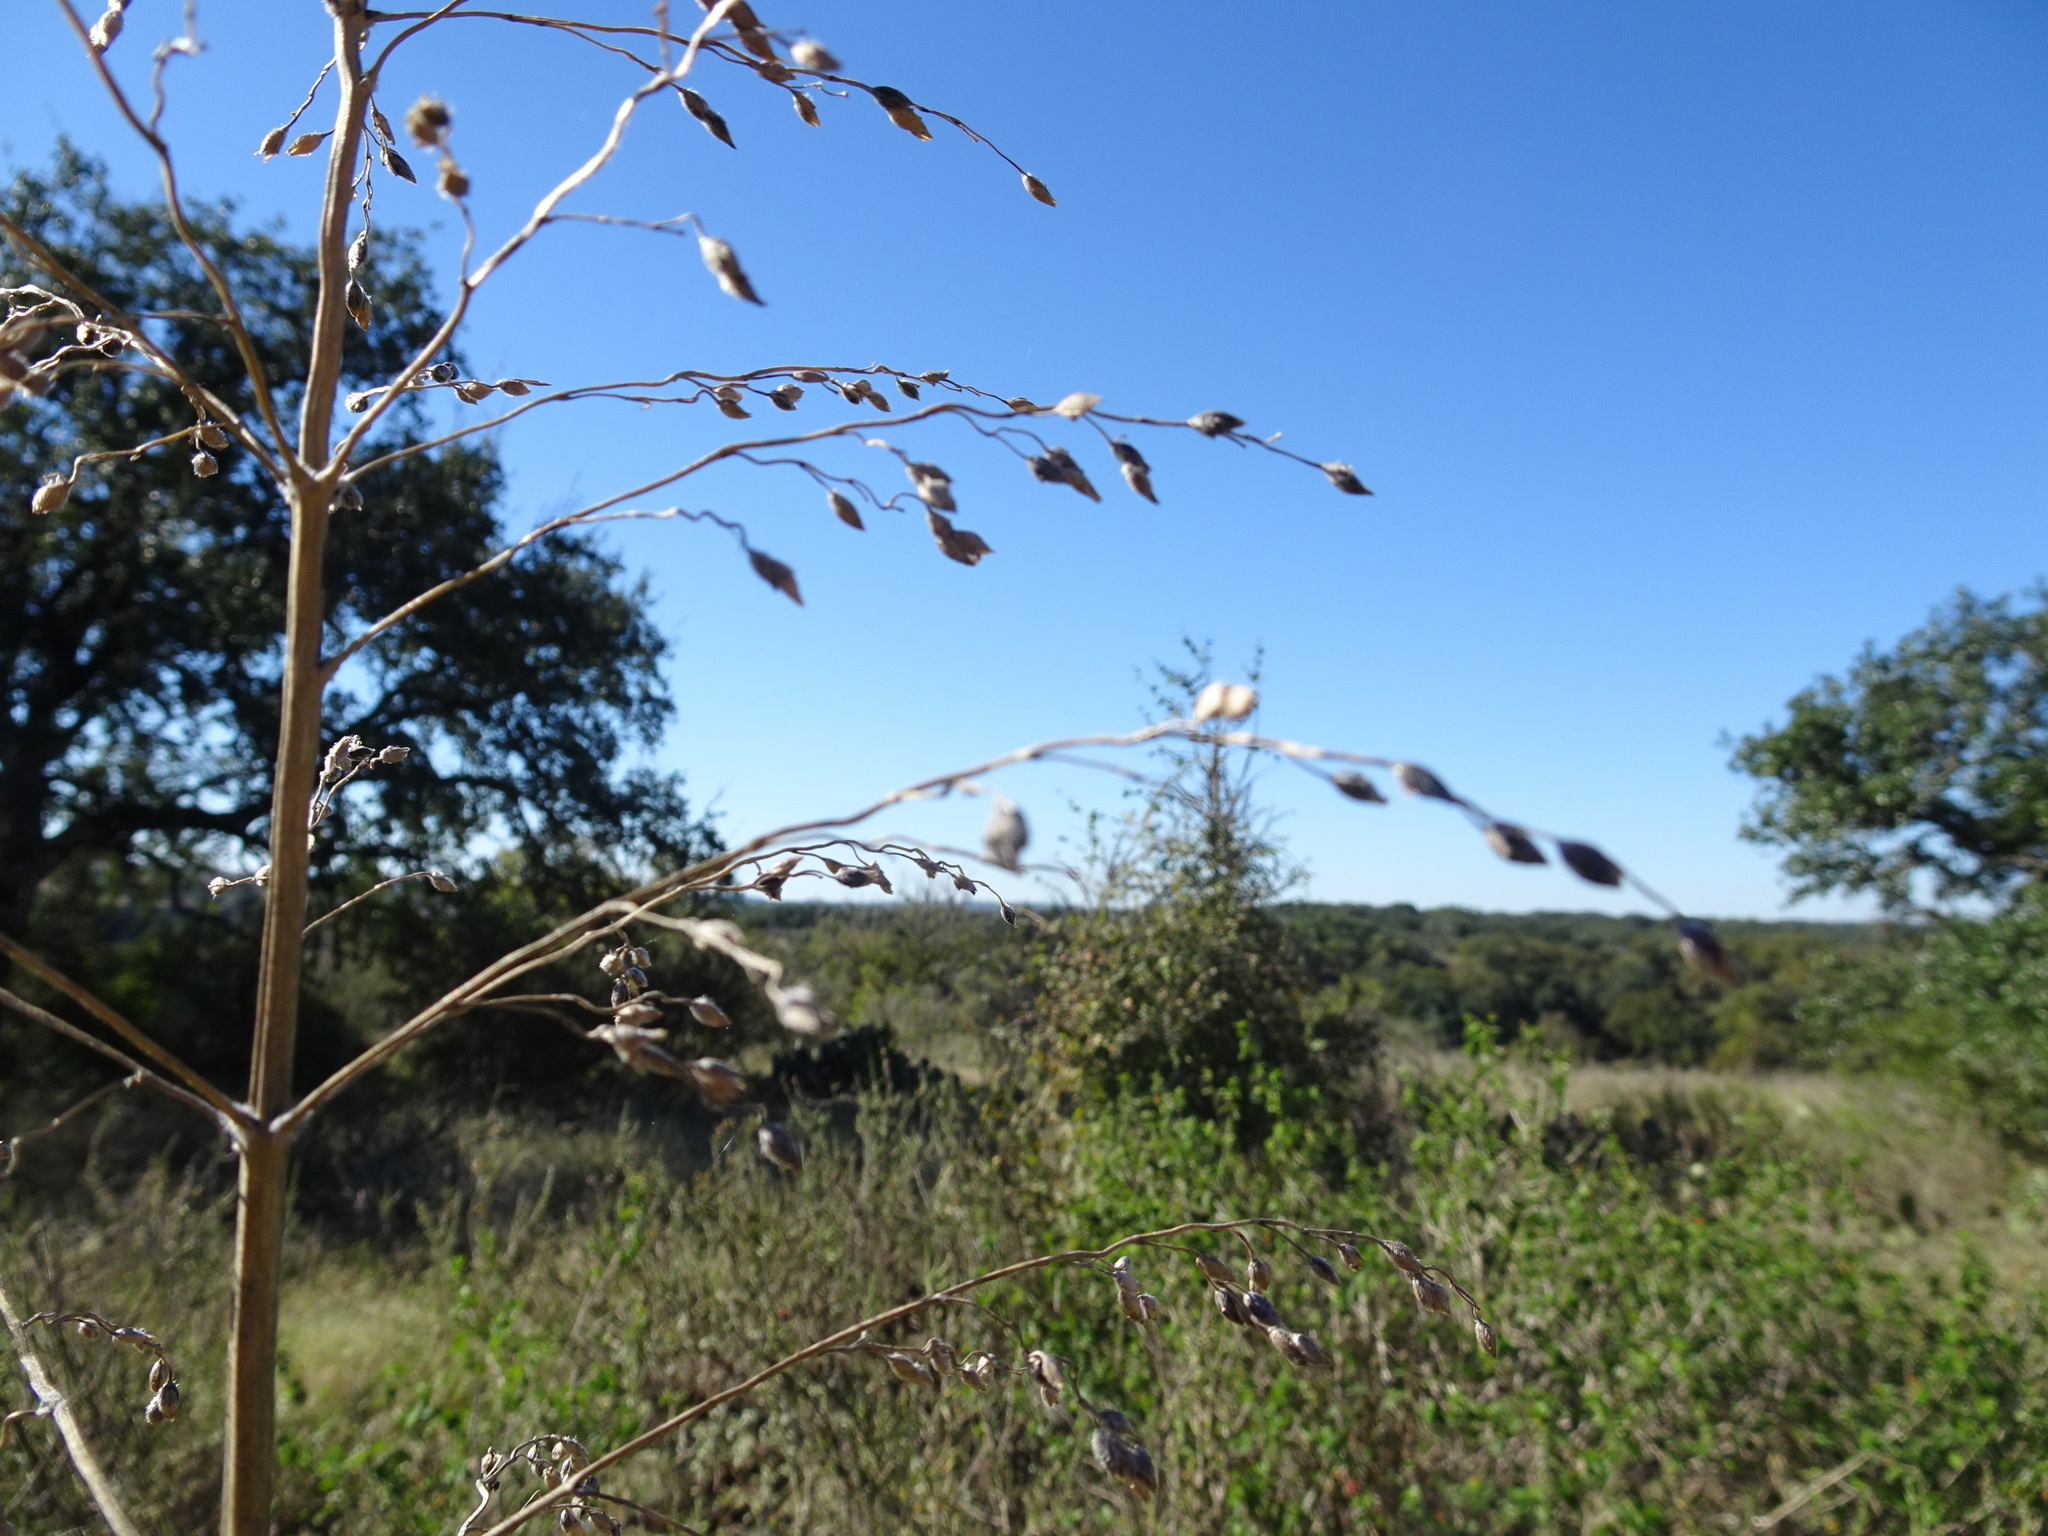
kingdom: Plantae
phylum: Tracheophyta
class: Liliopsida
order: Poales
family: Poaceae
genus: Sorghum
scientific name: Sorghum halepense
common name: Johnson-grass
